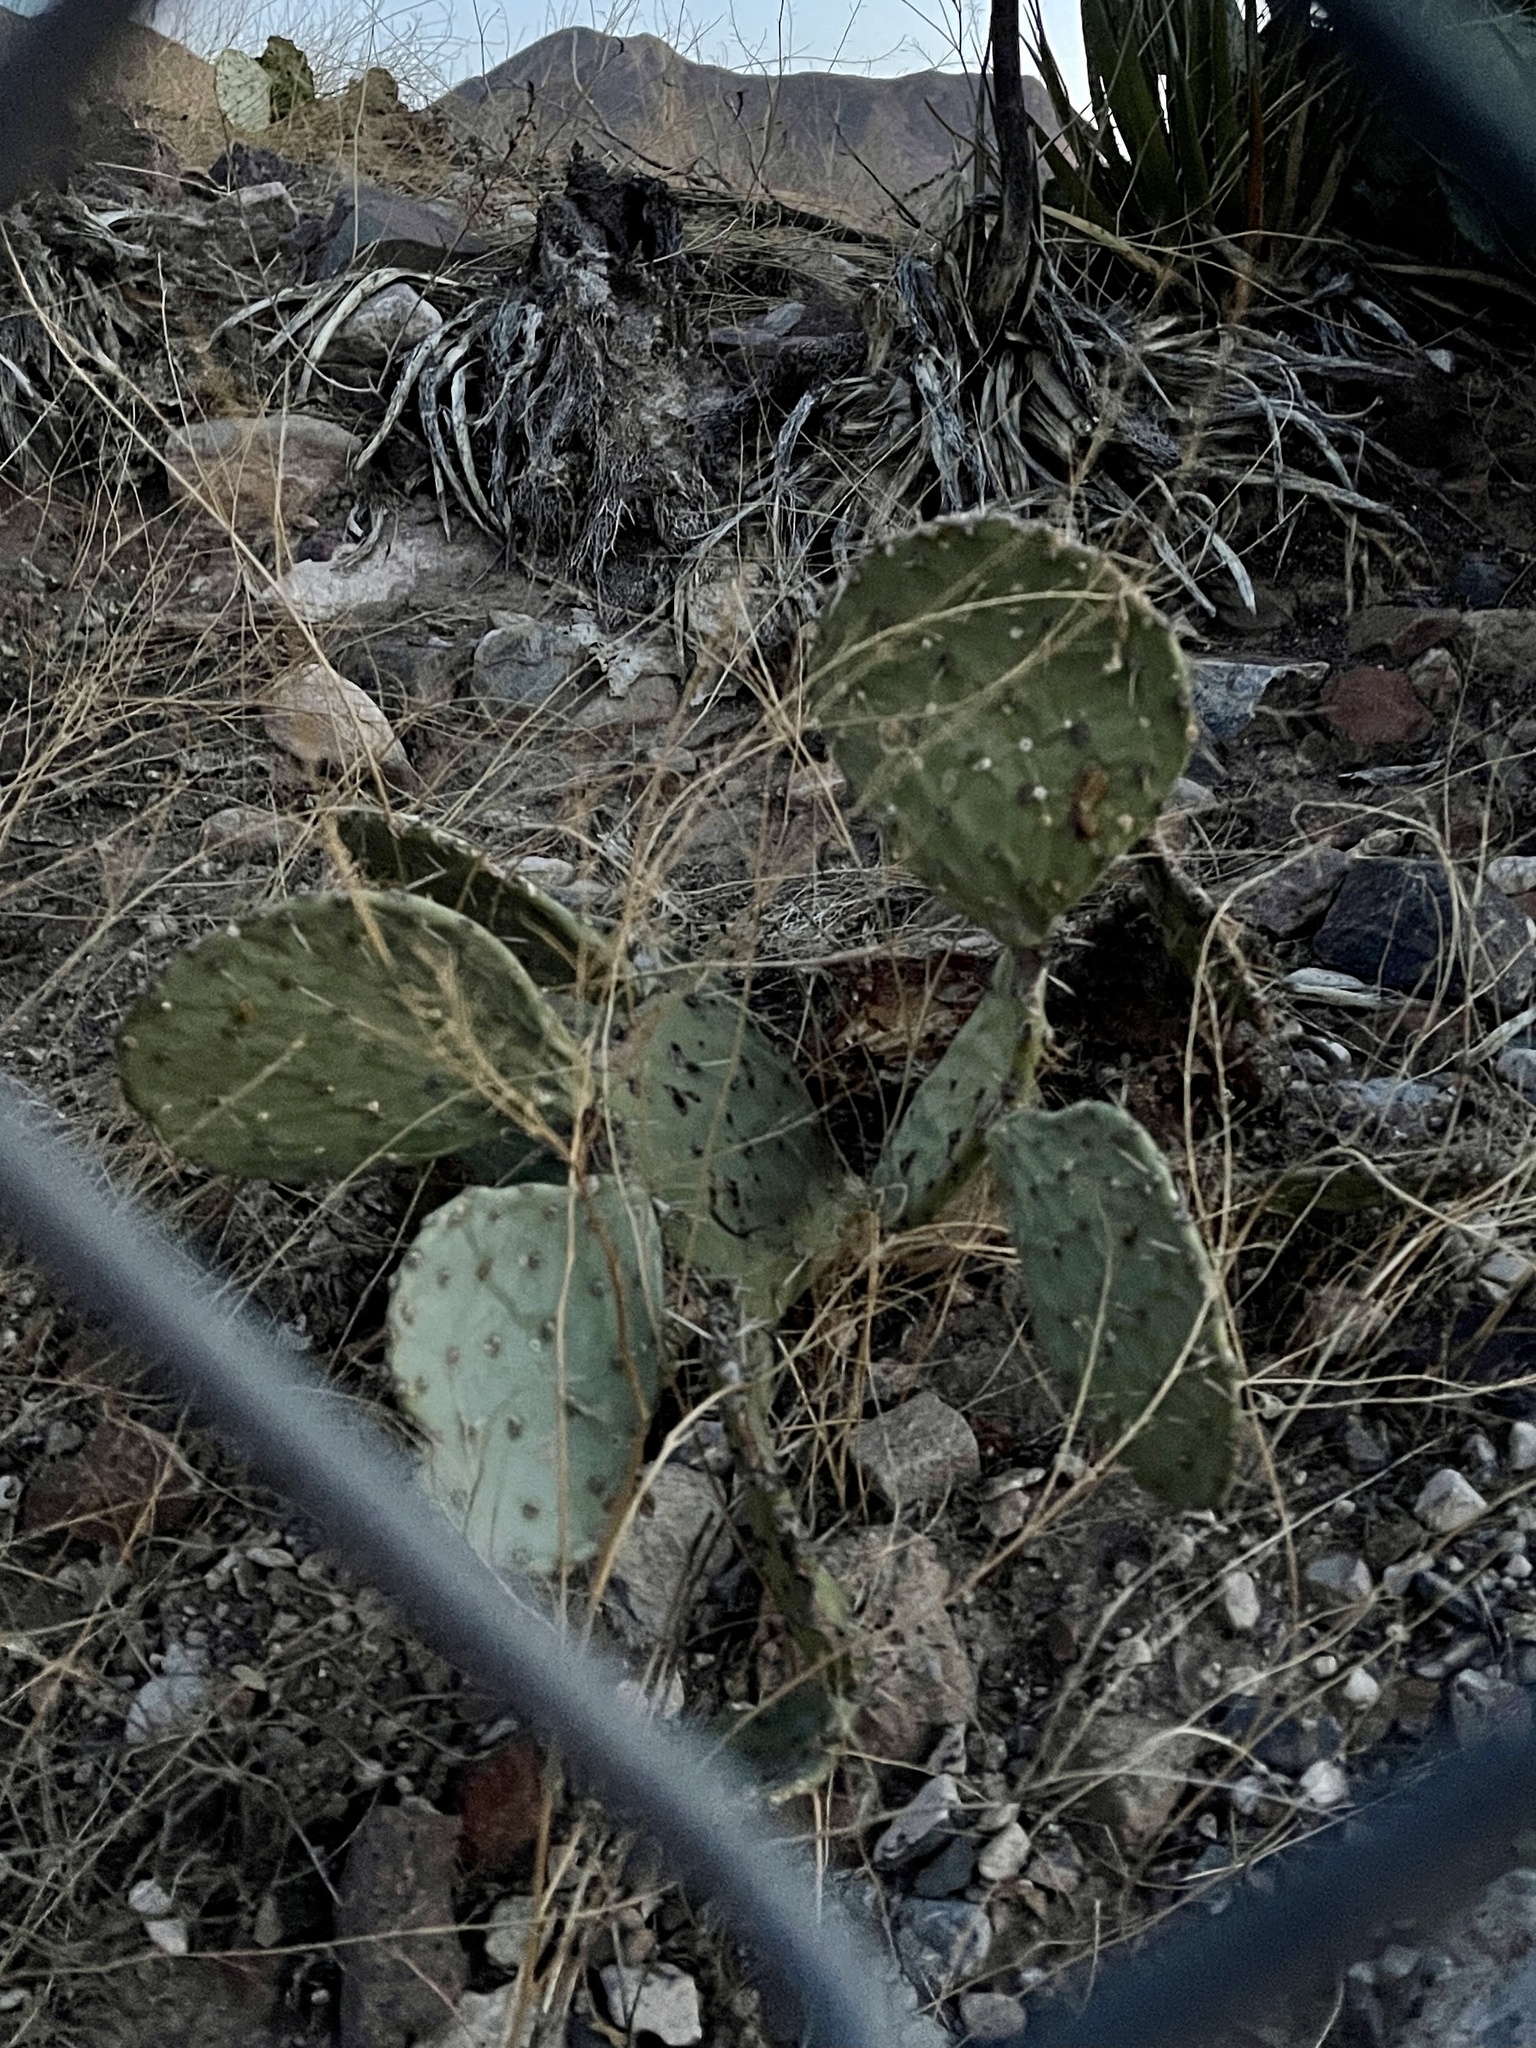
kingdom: Plantae
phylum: Tracheophyta
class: Magnoliopsida
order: Caryophyllales
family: Cactaceae
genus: Opuntia
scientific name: Opuntia engelmannii
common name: Cactus-apple
